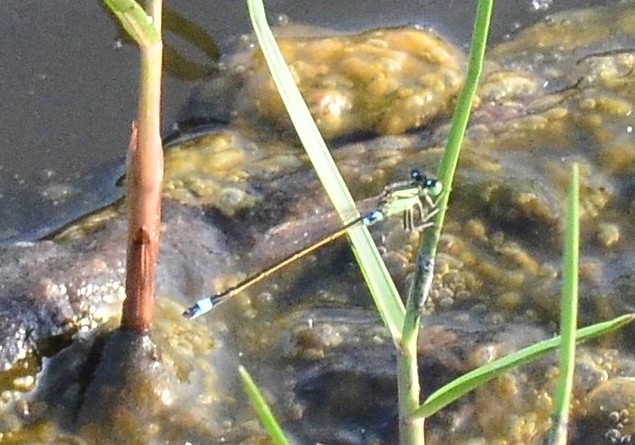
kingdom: Animalia
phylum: Arthropoda
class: Insecta
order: Odonata
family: Coenagrionidae
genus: Ischnura
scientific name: Ischnura senegalensis
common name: Tropical bluetail
